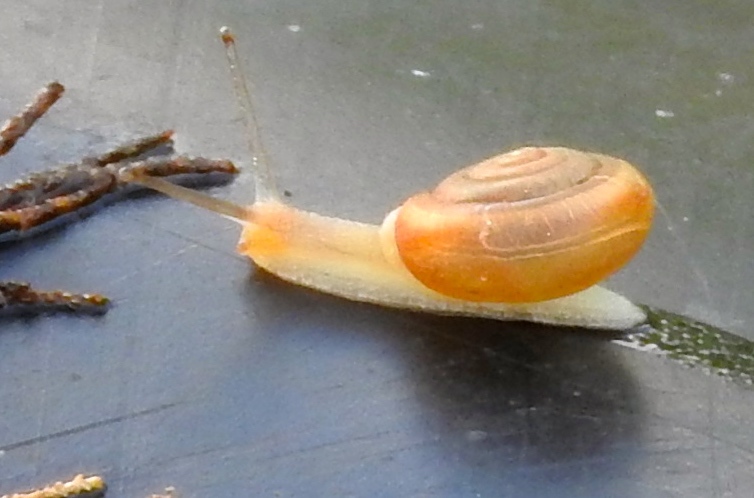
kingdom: Animalia
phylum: Mollusca
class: Gastropoda
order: Stylommatophora
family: Polygyridae
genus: Linisa
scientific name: Linisa
